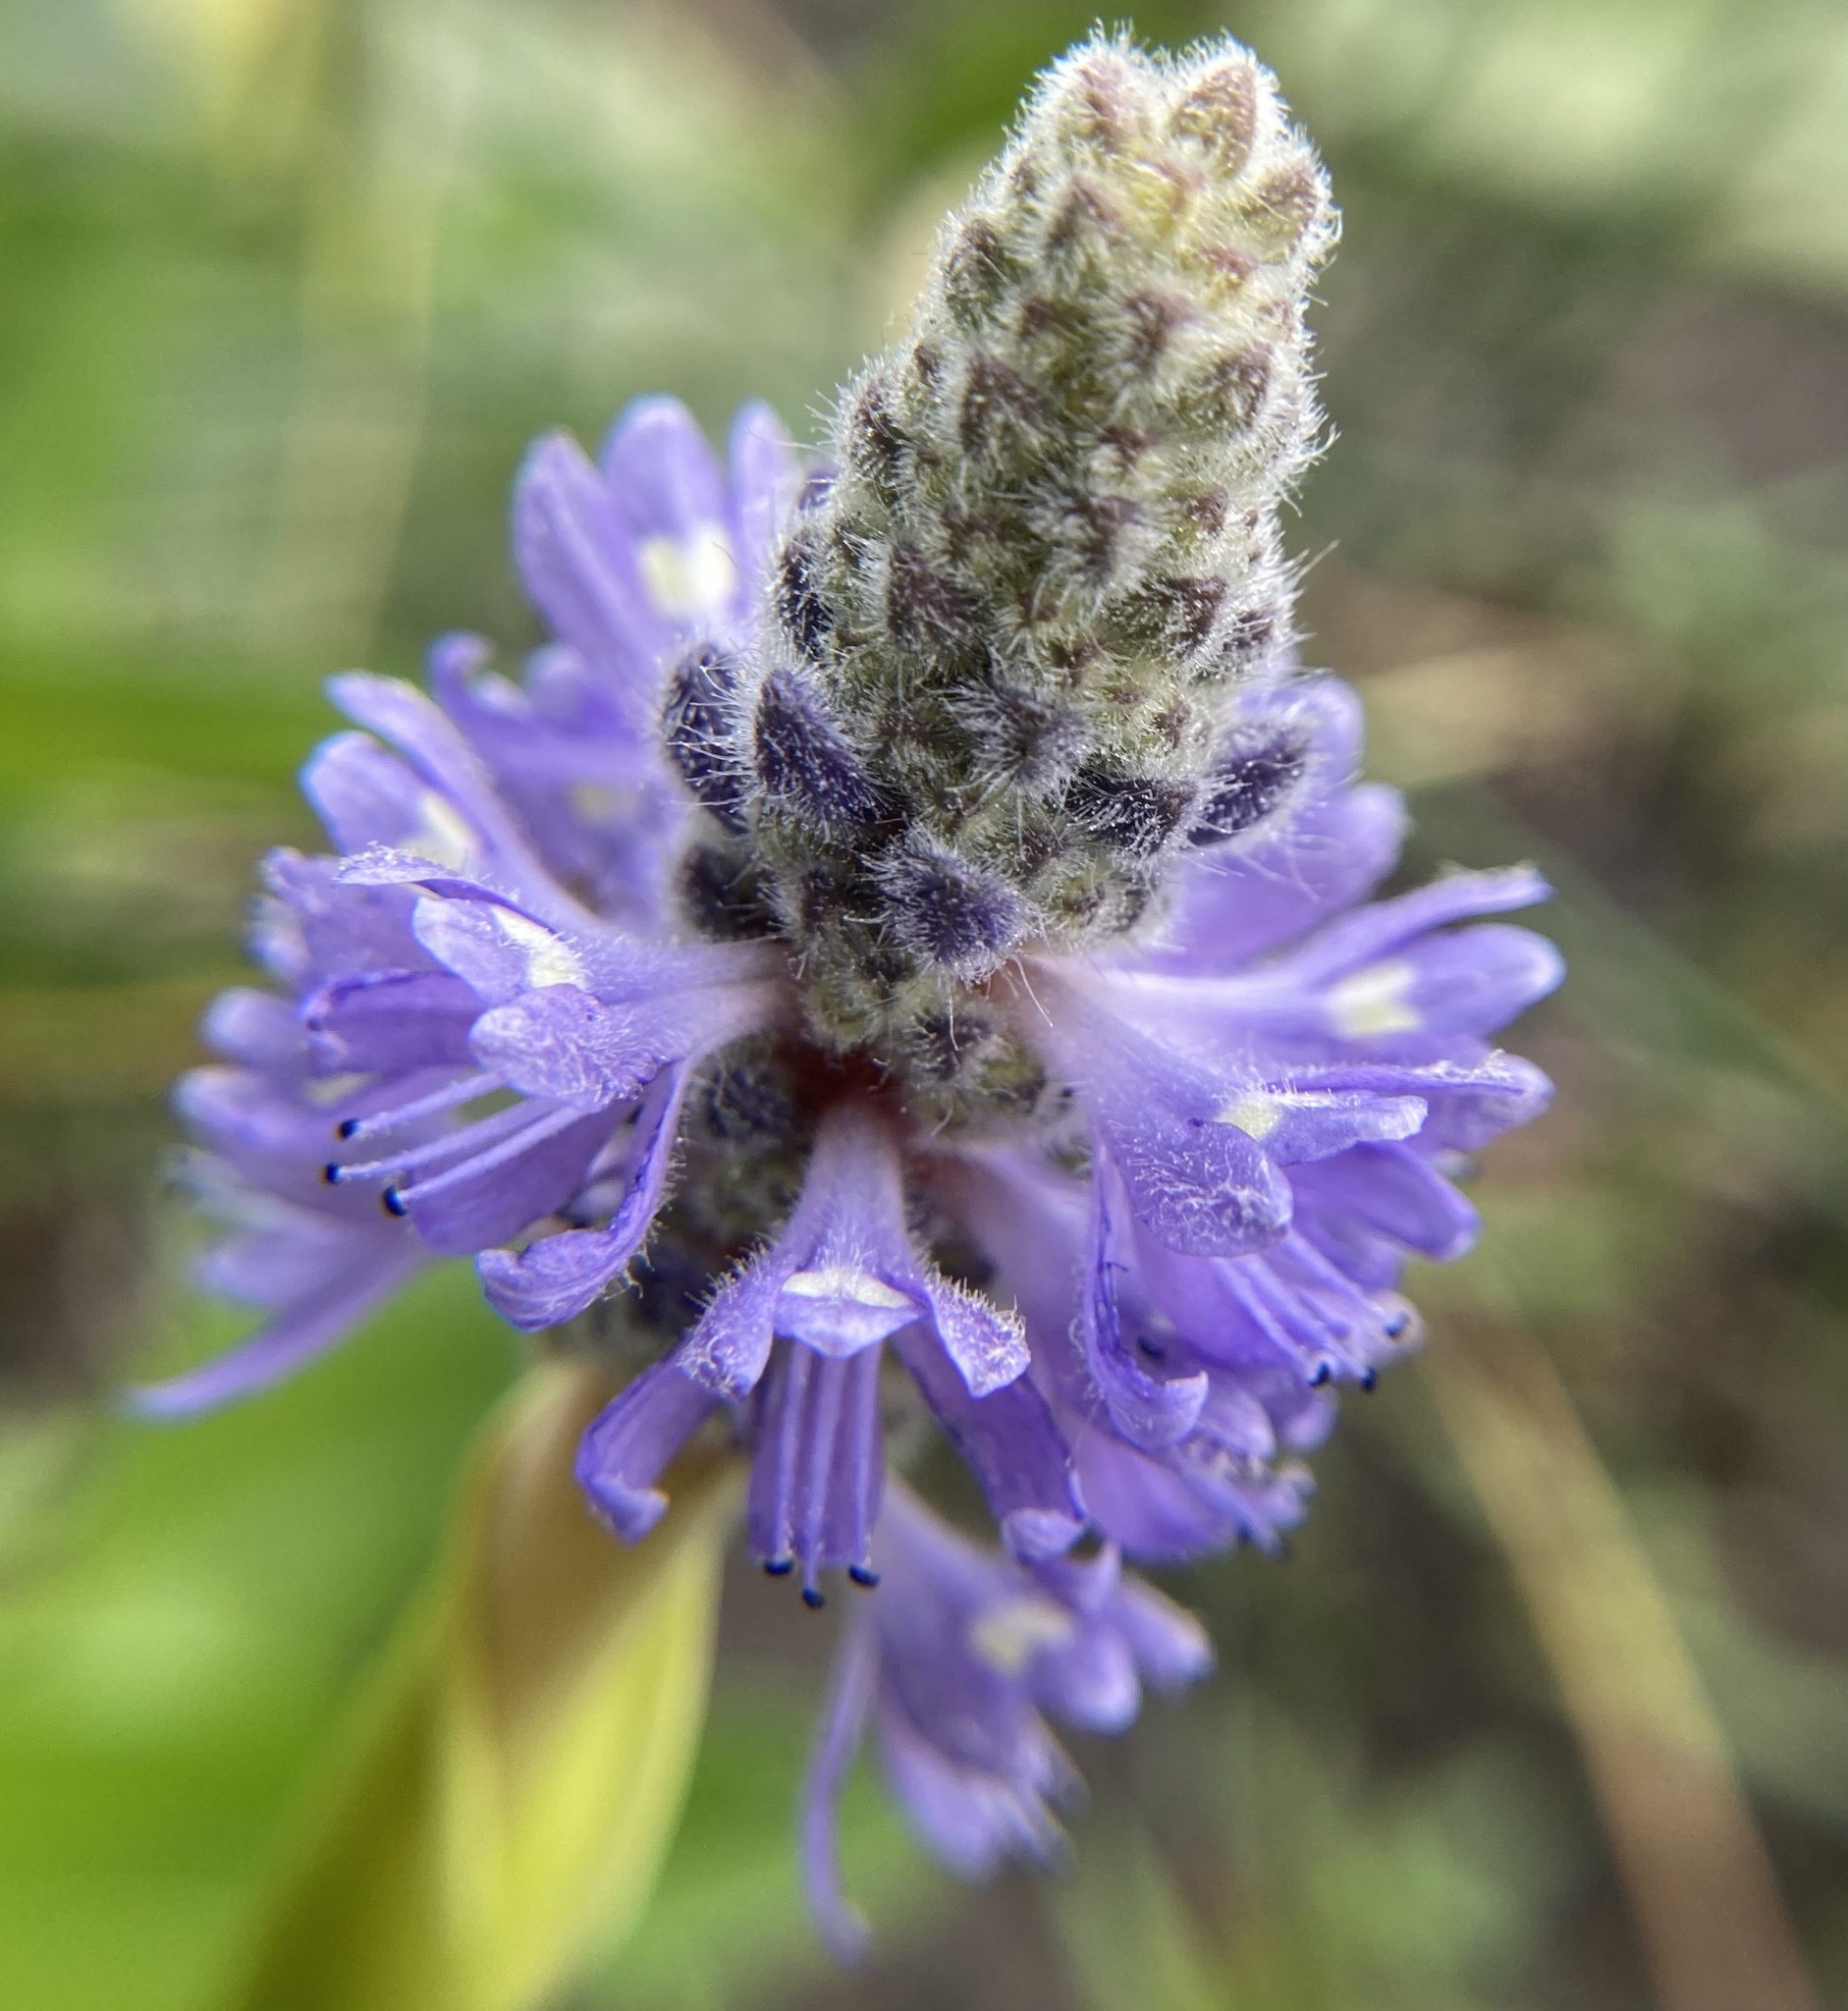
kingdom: Plantae
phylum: Tracheophyta
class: Liliopsida
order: Commelinales
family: Pontederiaceae
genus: Pontederia
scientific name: Pontederia cordata
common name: Pickerelweed
